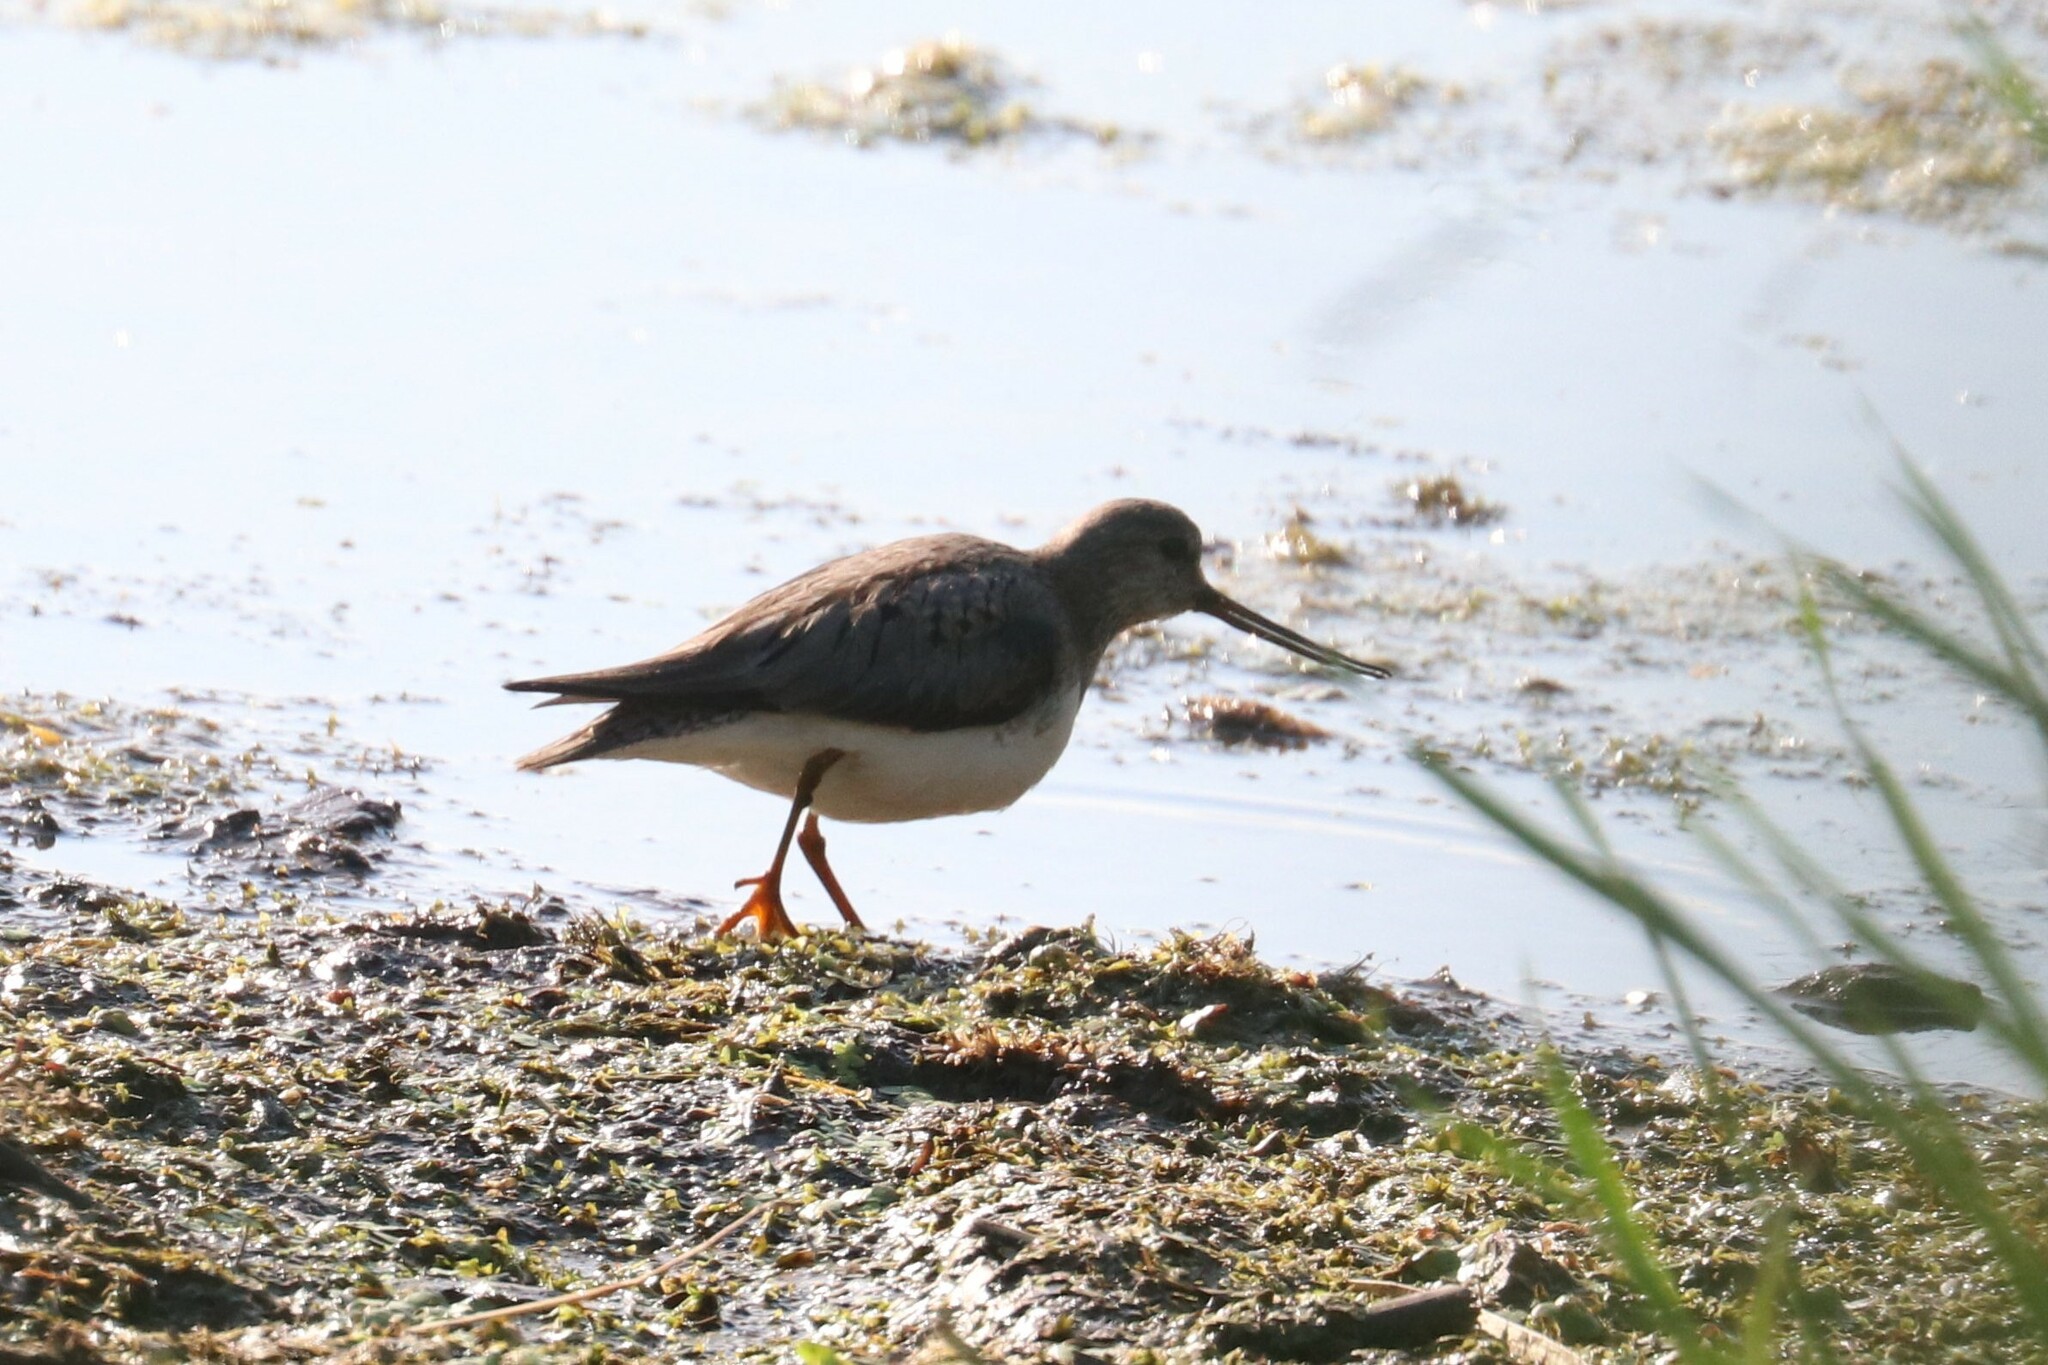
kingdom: Animalia
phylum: Chordata
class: Aves
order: Charadriiformes
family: Scolopacidae
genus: Xenus
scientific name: Xenus cinereus
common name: Terek sandpiper
